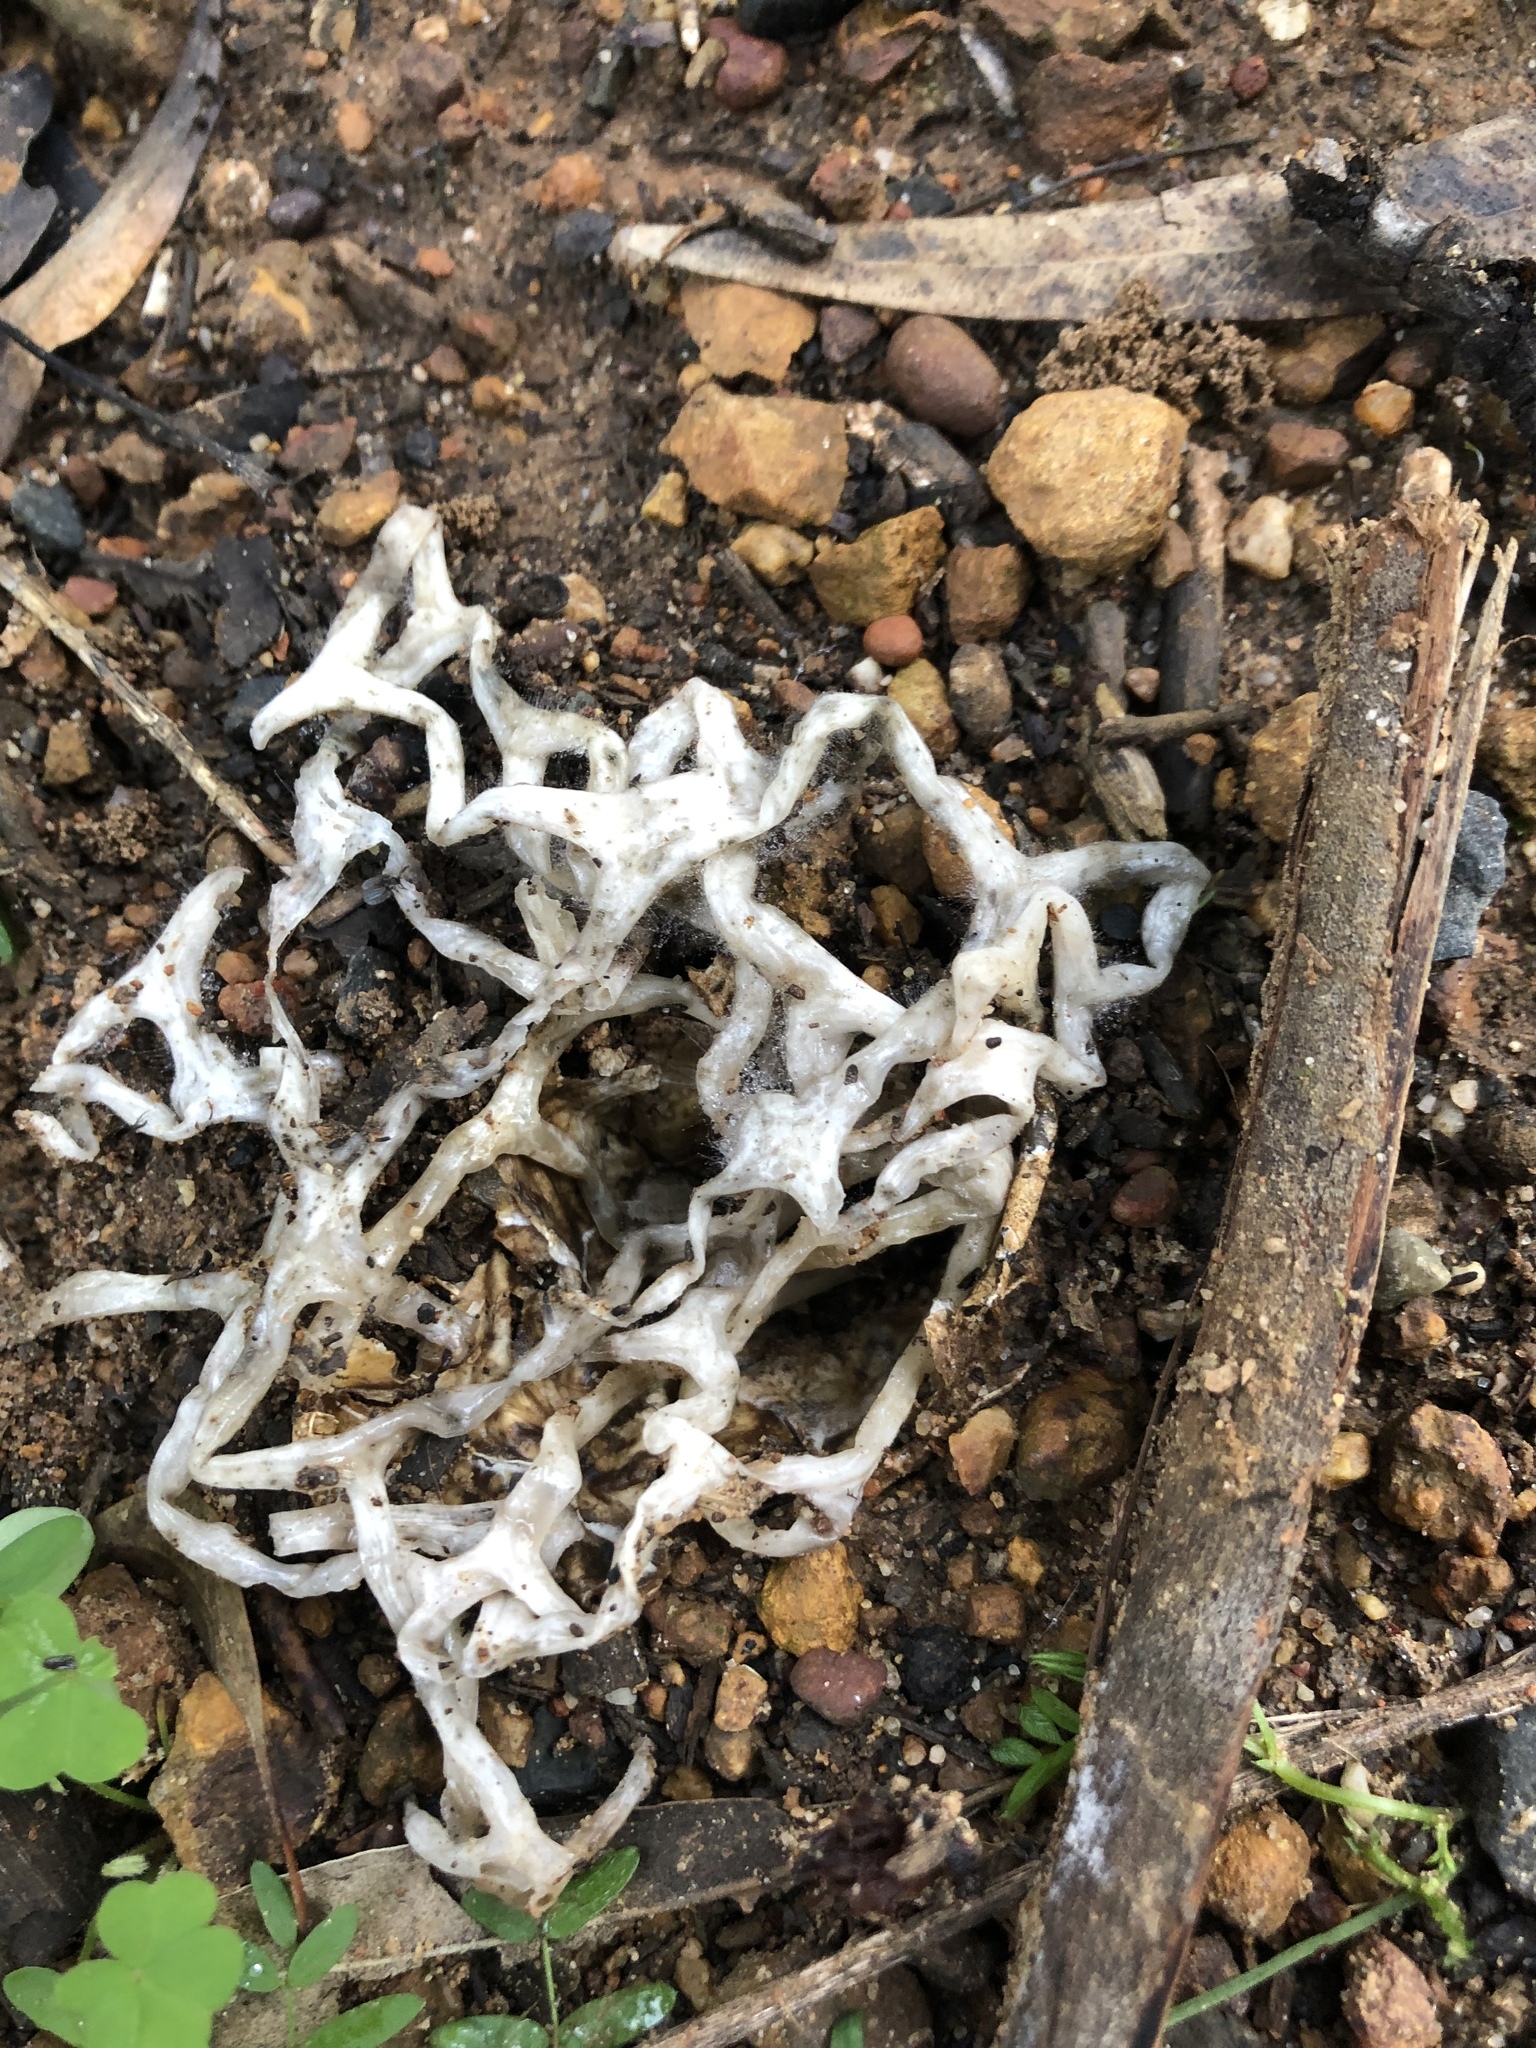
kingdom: Fungi
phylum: Basidiomycota
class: Agaricomycetes
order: Phallales
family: Phallaceae
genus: Ileodictyon
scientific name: Ileodictyon gracile
